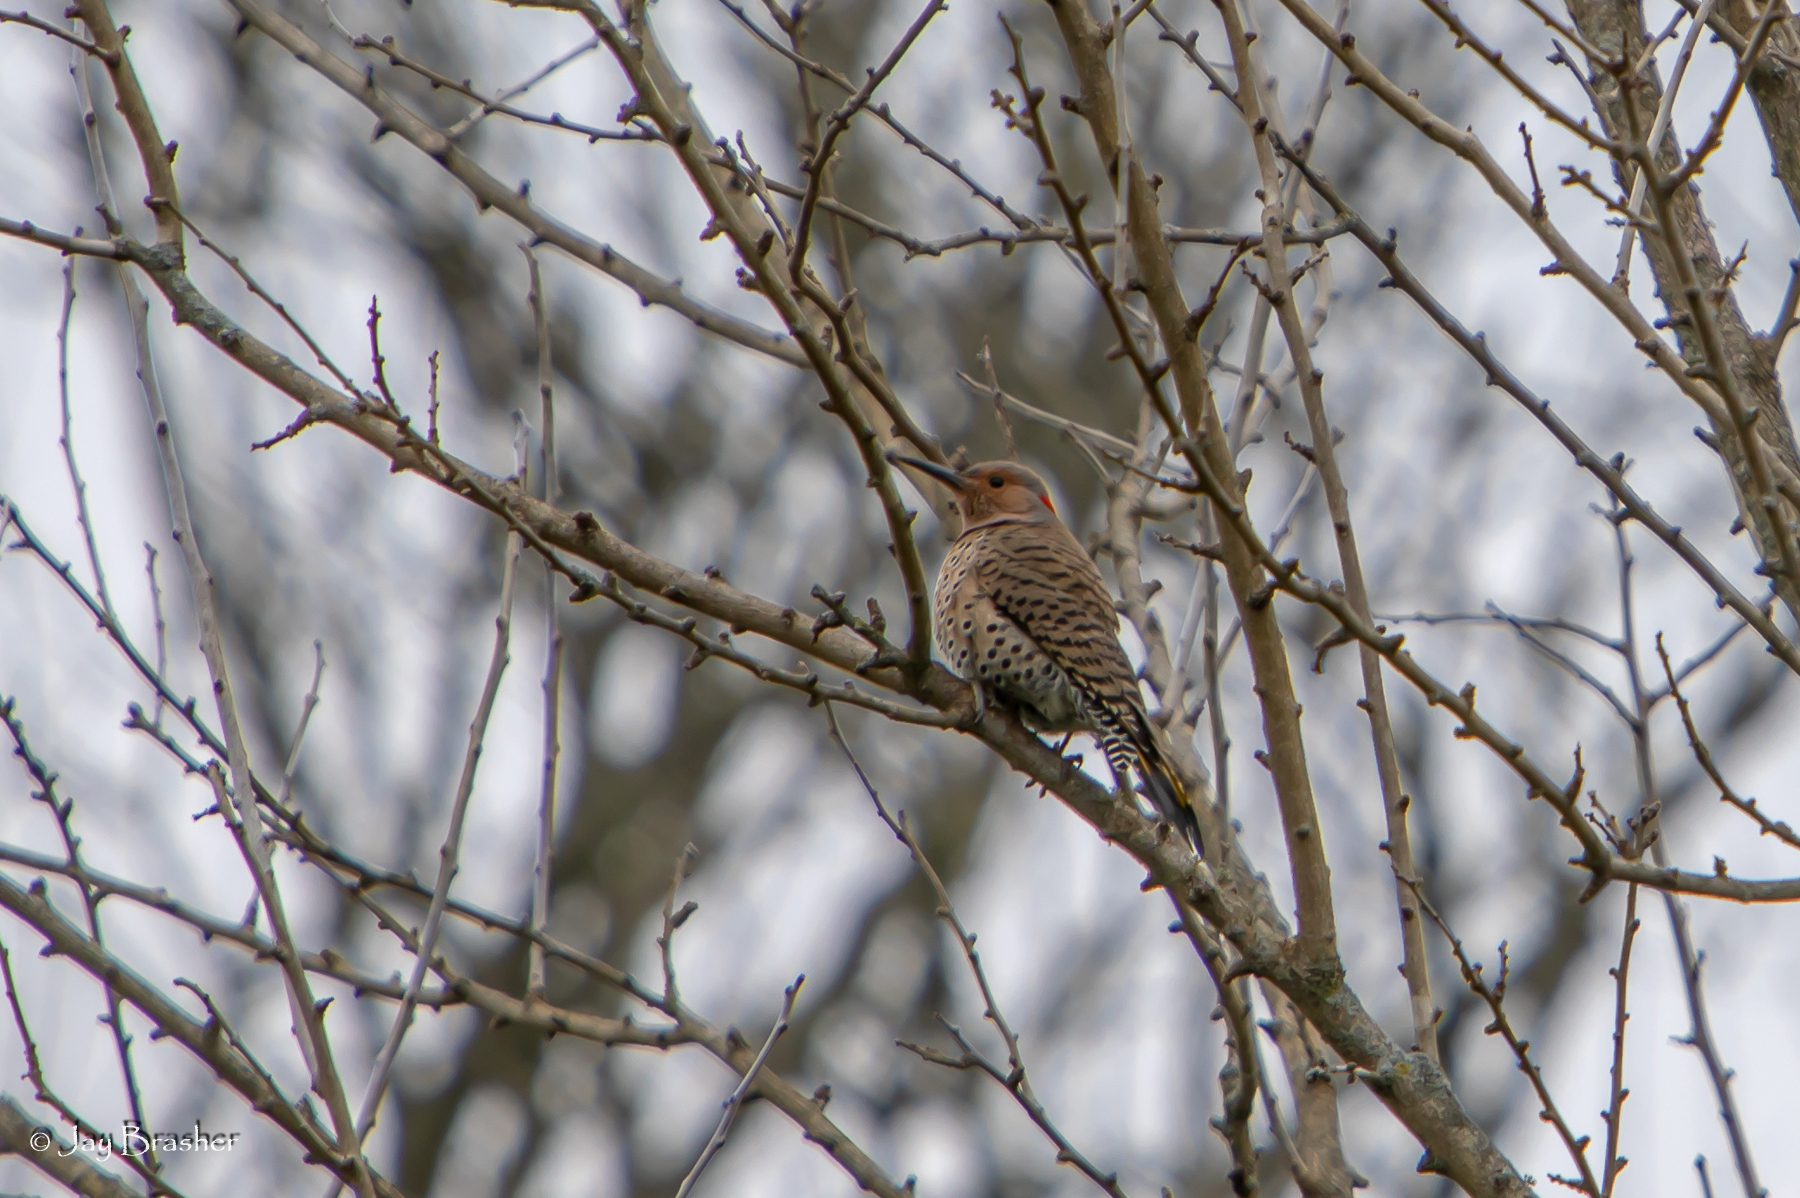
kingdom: Animalia
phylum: Chordata
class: Aves
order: Piciformes
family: Picidae
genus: Colaptes
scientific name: Colaptes auratus
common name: Northern flicker
